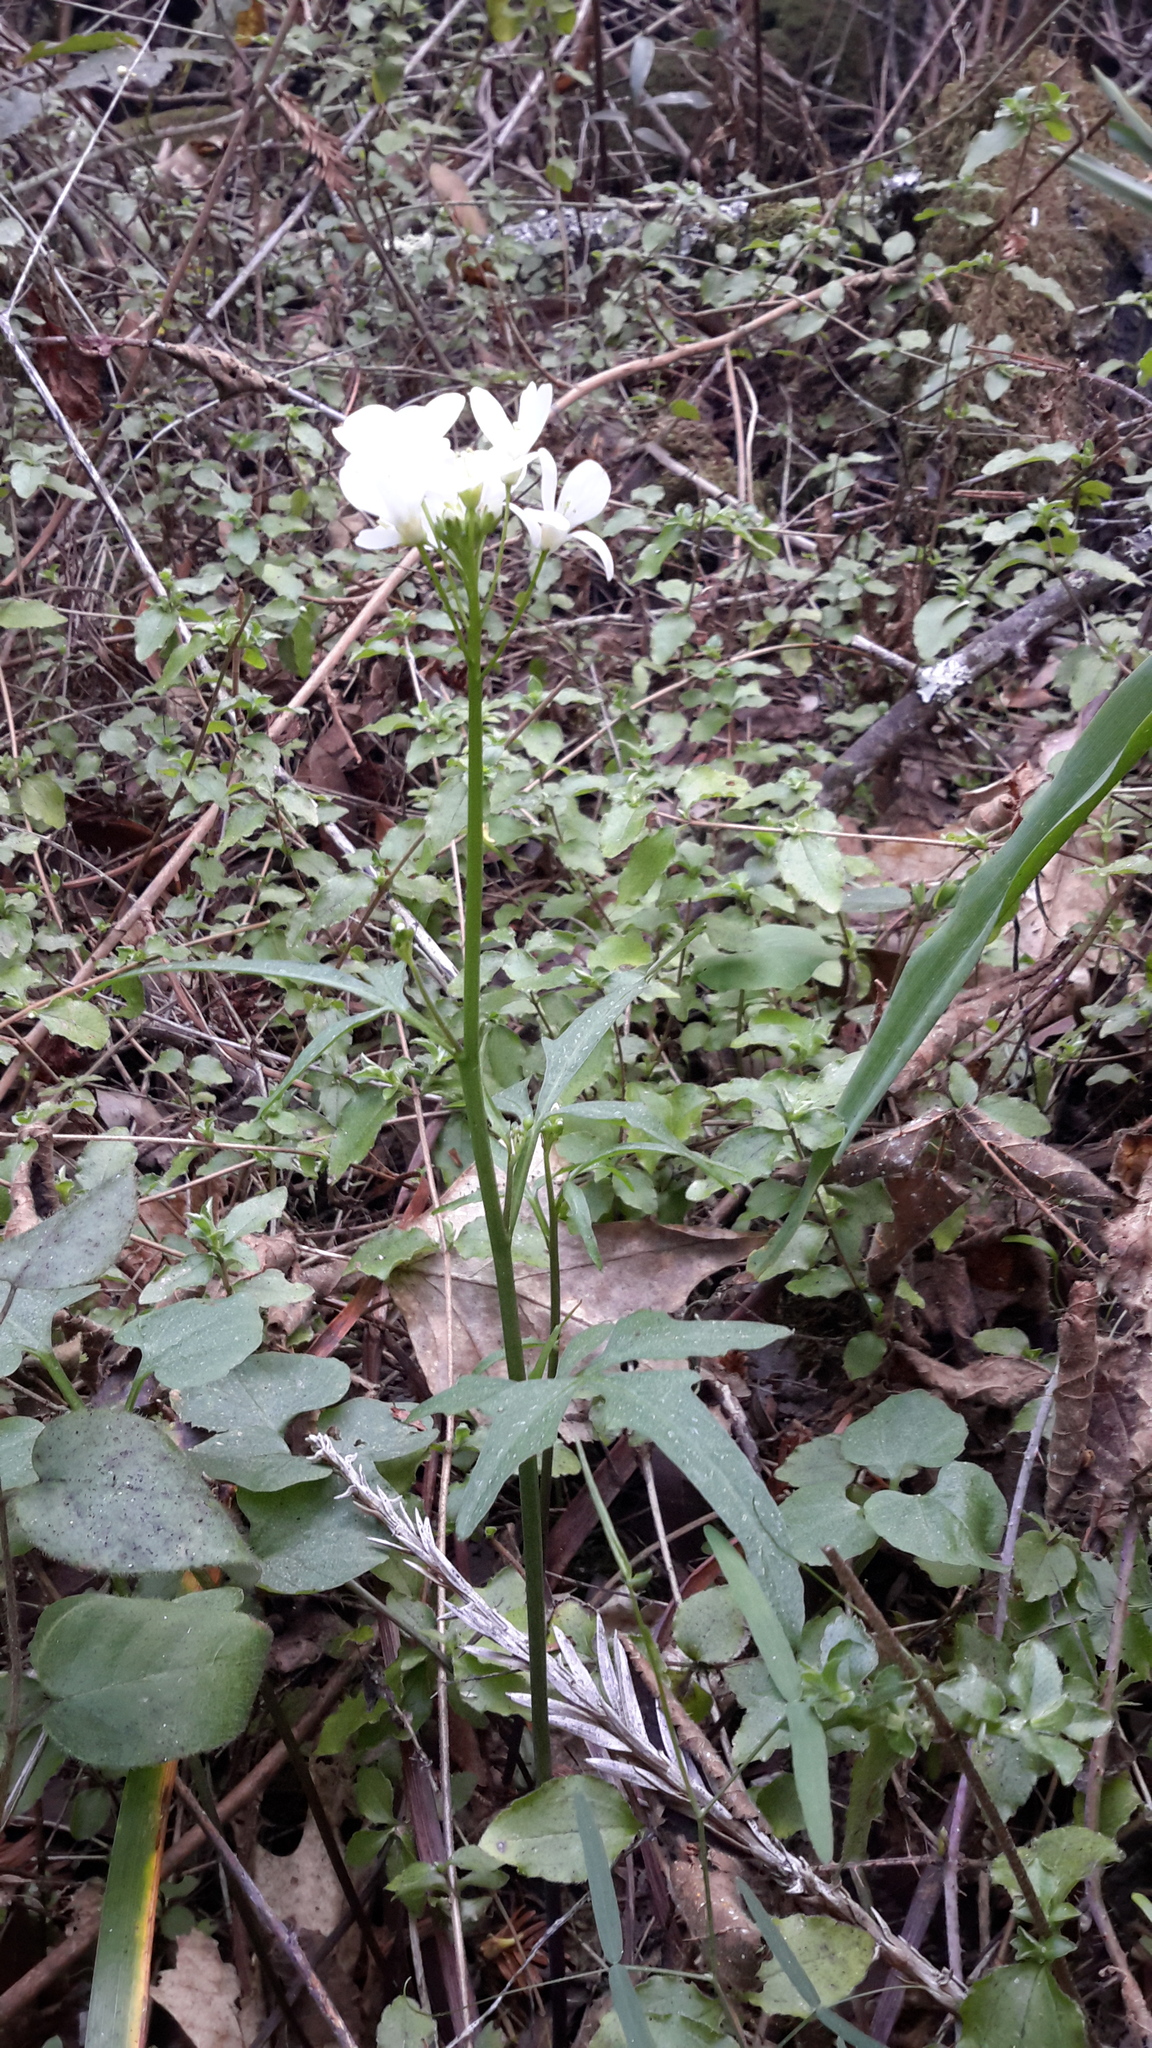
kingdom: Plantae
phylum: Tracheophyta
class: Magnoliopsida
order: Brassicales
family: Brassicaceae
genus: Cardamine
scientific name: Cardamine californica
